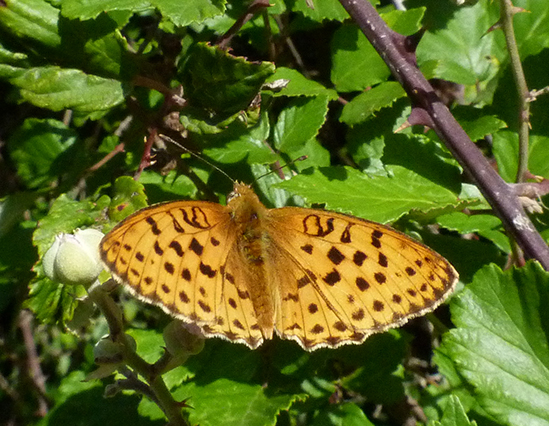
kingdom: Animalia
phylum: Arthropoda
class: Insecta
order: Lepidoptera
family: Nymphalidae
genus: Brenthis
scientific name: Brenthis daphne
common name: Marbled fritillary
